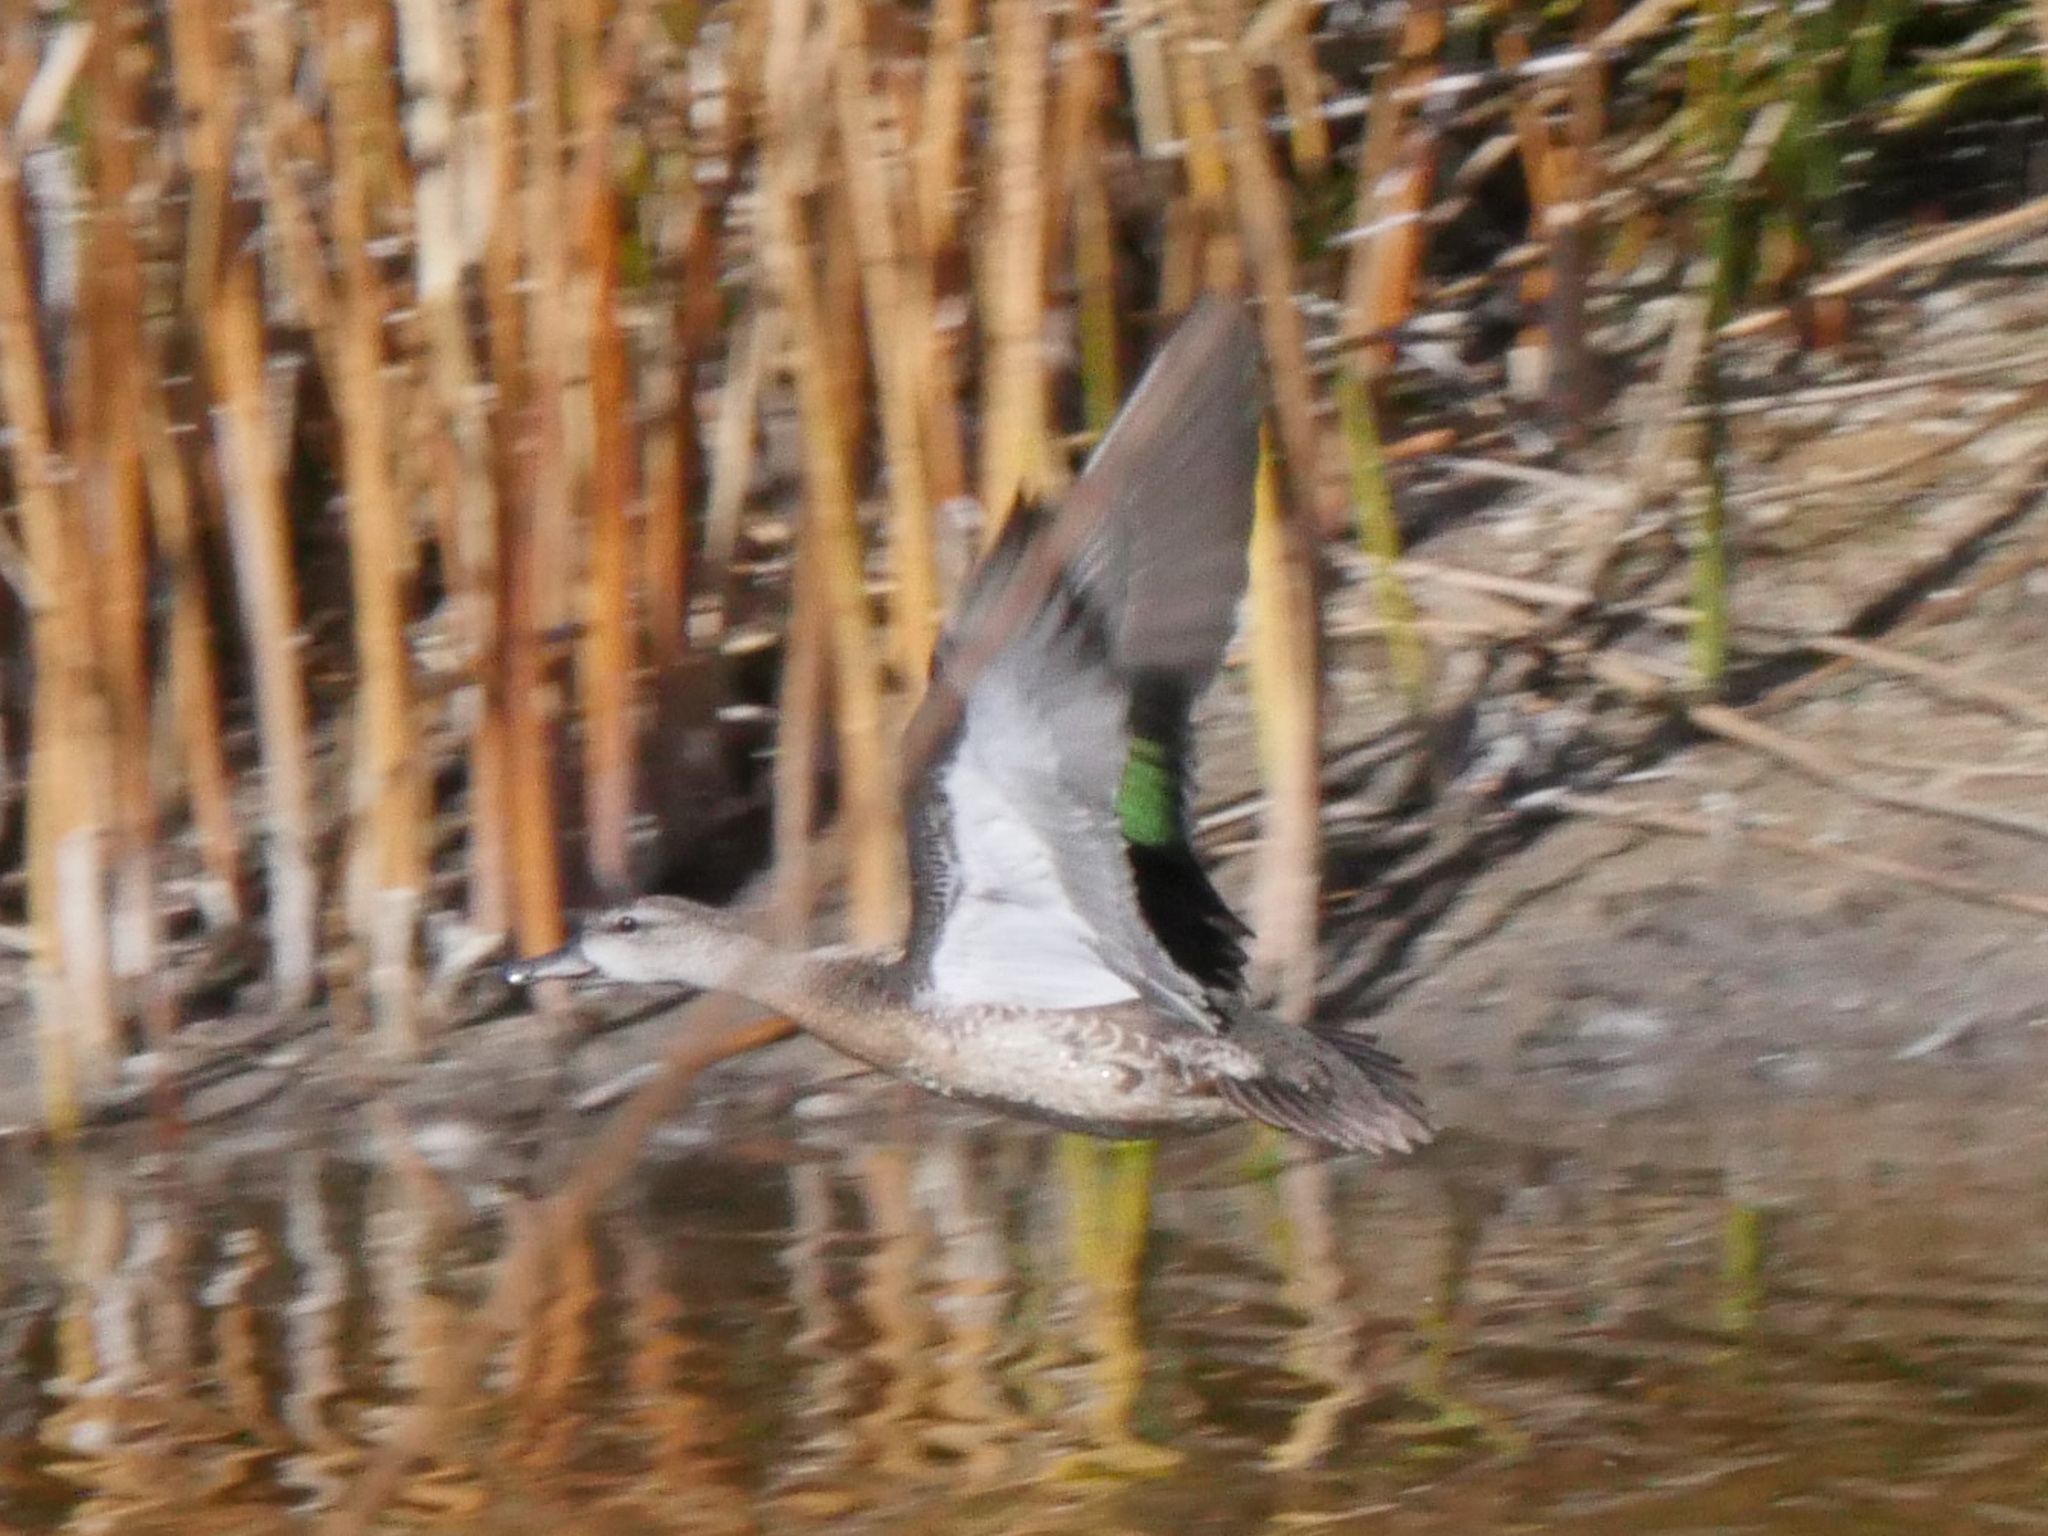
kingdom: Animalia
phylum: Chordata
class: Aves
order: Anseriformes
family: Anatidae
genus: Spatula
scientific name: Spatula discors
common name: Blue-winged teal
